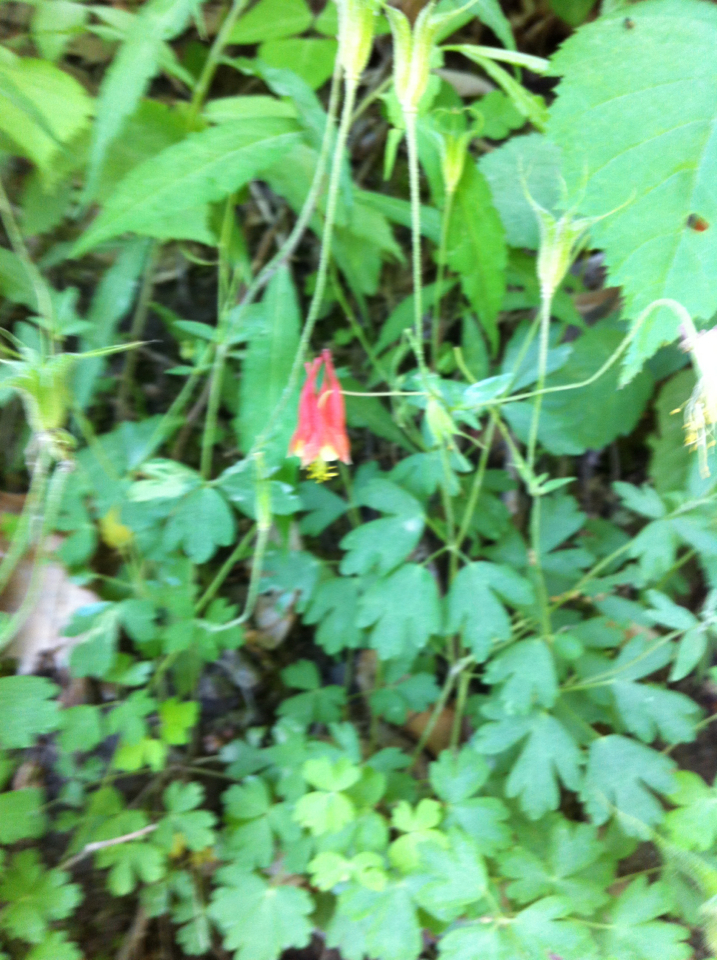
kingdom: Plantae
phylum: Tracheophyta
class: Magnoliopsida
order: Ranunculales
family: Ranunculaceae
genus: Aquilegia
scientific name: Aquilegia canadensis
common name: American columbine
